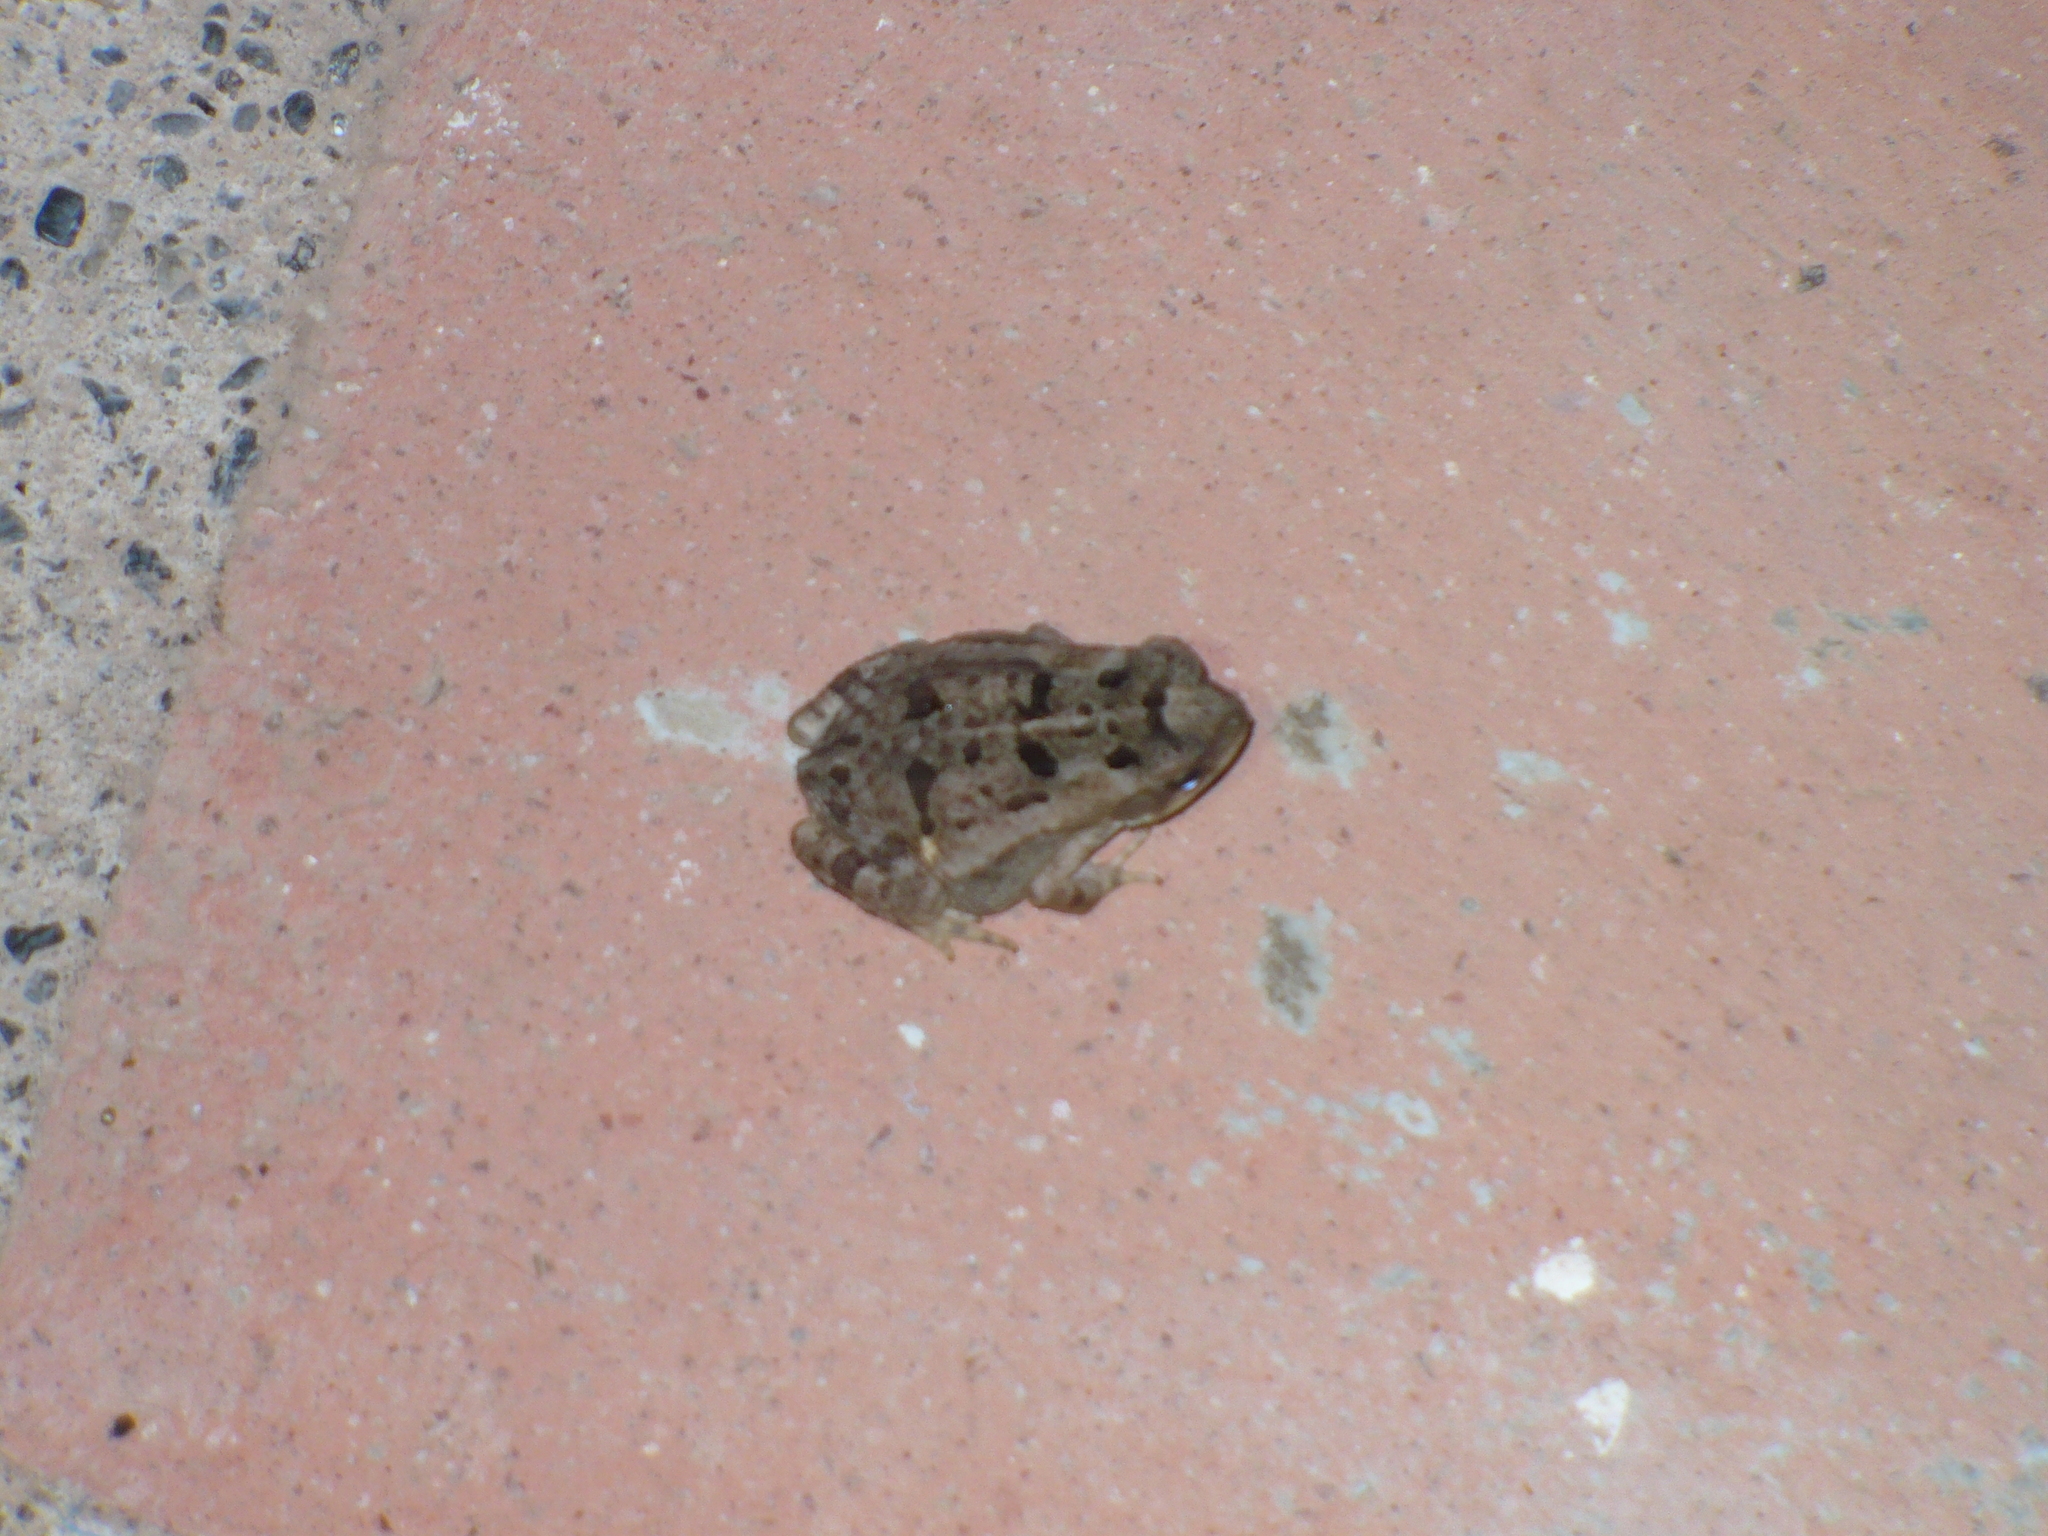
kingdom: Animalia
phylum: Chordata
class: Amphibia
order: Anura
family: Bufonidae
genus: Rhinella
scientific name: Rhinella horribilis
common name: Mesoamerican cane toad
